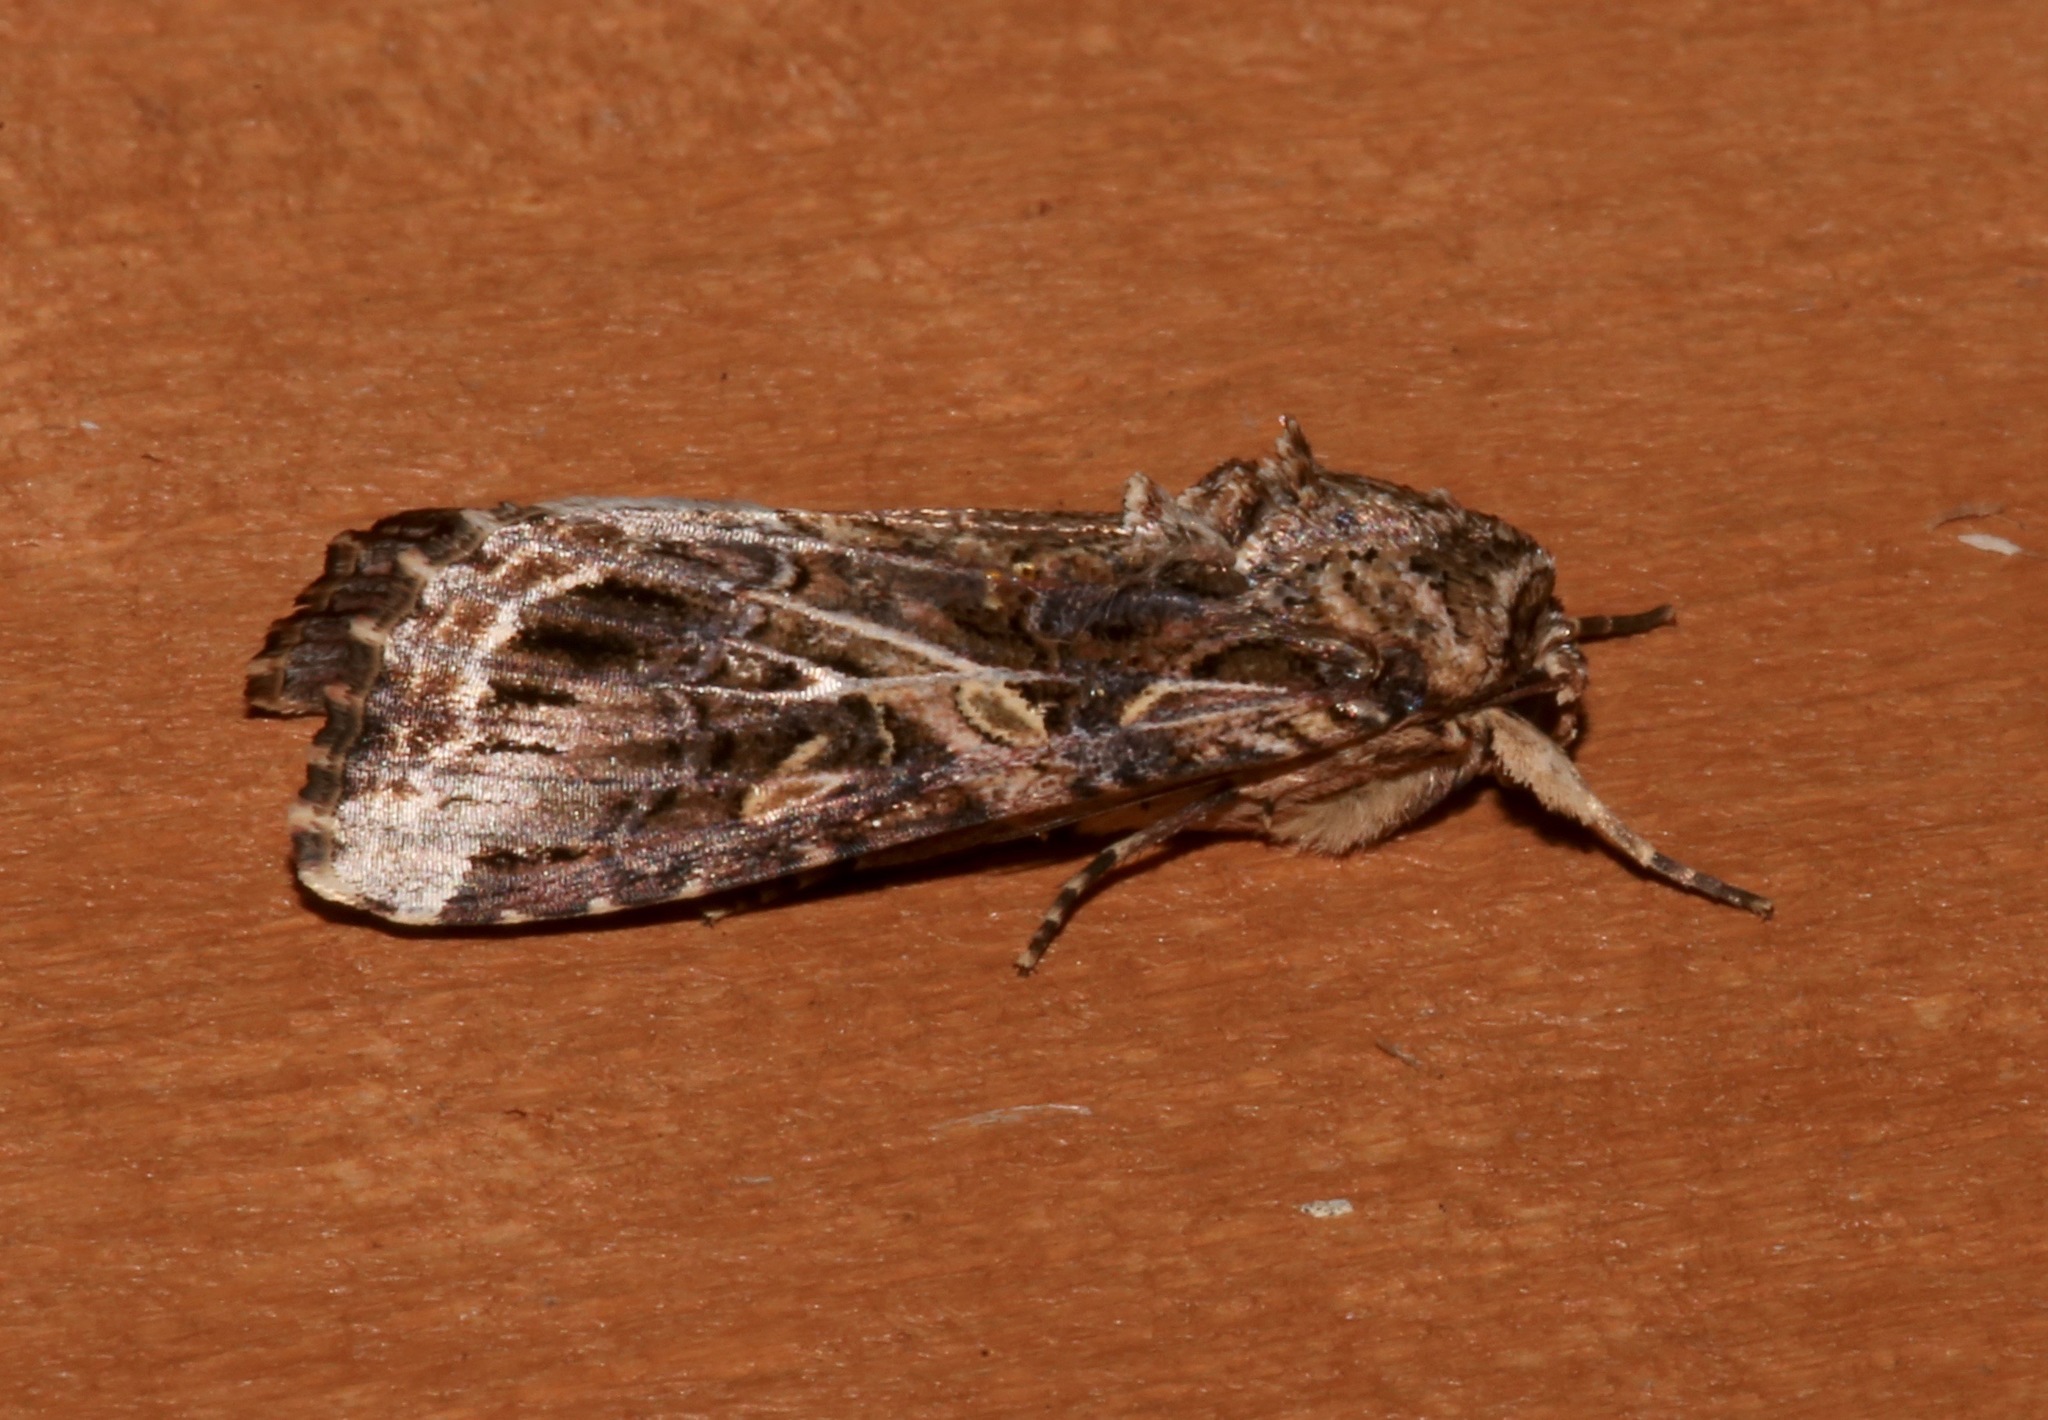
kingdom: Animalia
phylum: Arthropoda
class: Insecta
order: Lepidoptera
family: Noctuidae
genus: Spodoptera
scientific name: Spodoptera ornithogalli
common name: Yellow-striped armyworm
